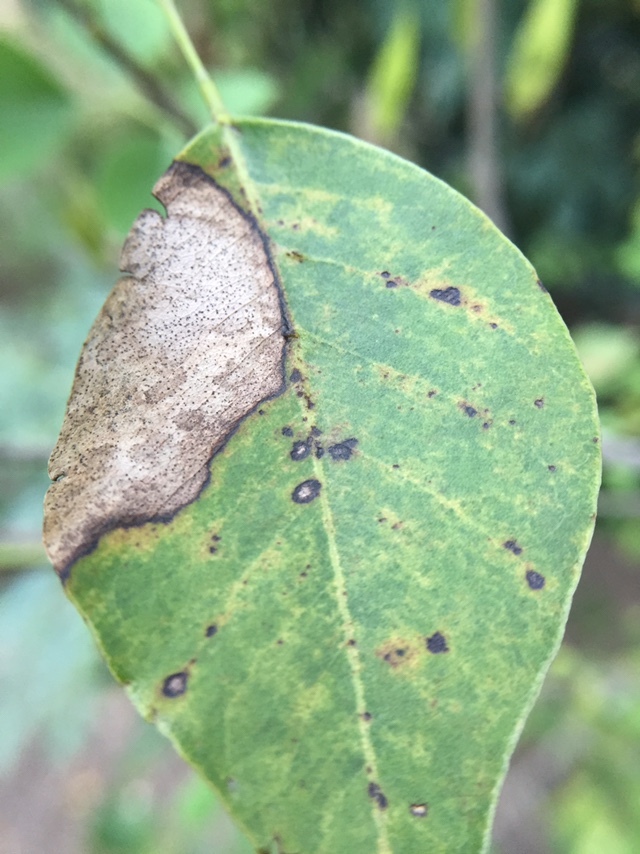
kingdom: Plantae
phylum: Tracheophyta
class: Magnoliopsida
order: Fabales
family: Fabaceae
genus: Dalbergia
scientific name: Dalbergia sissoo
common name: Indian rosewood
